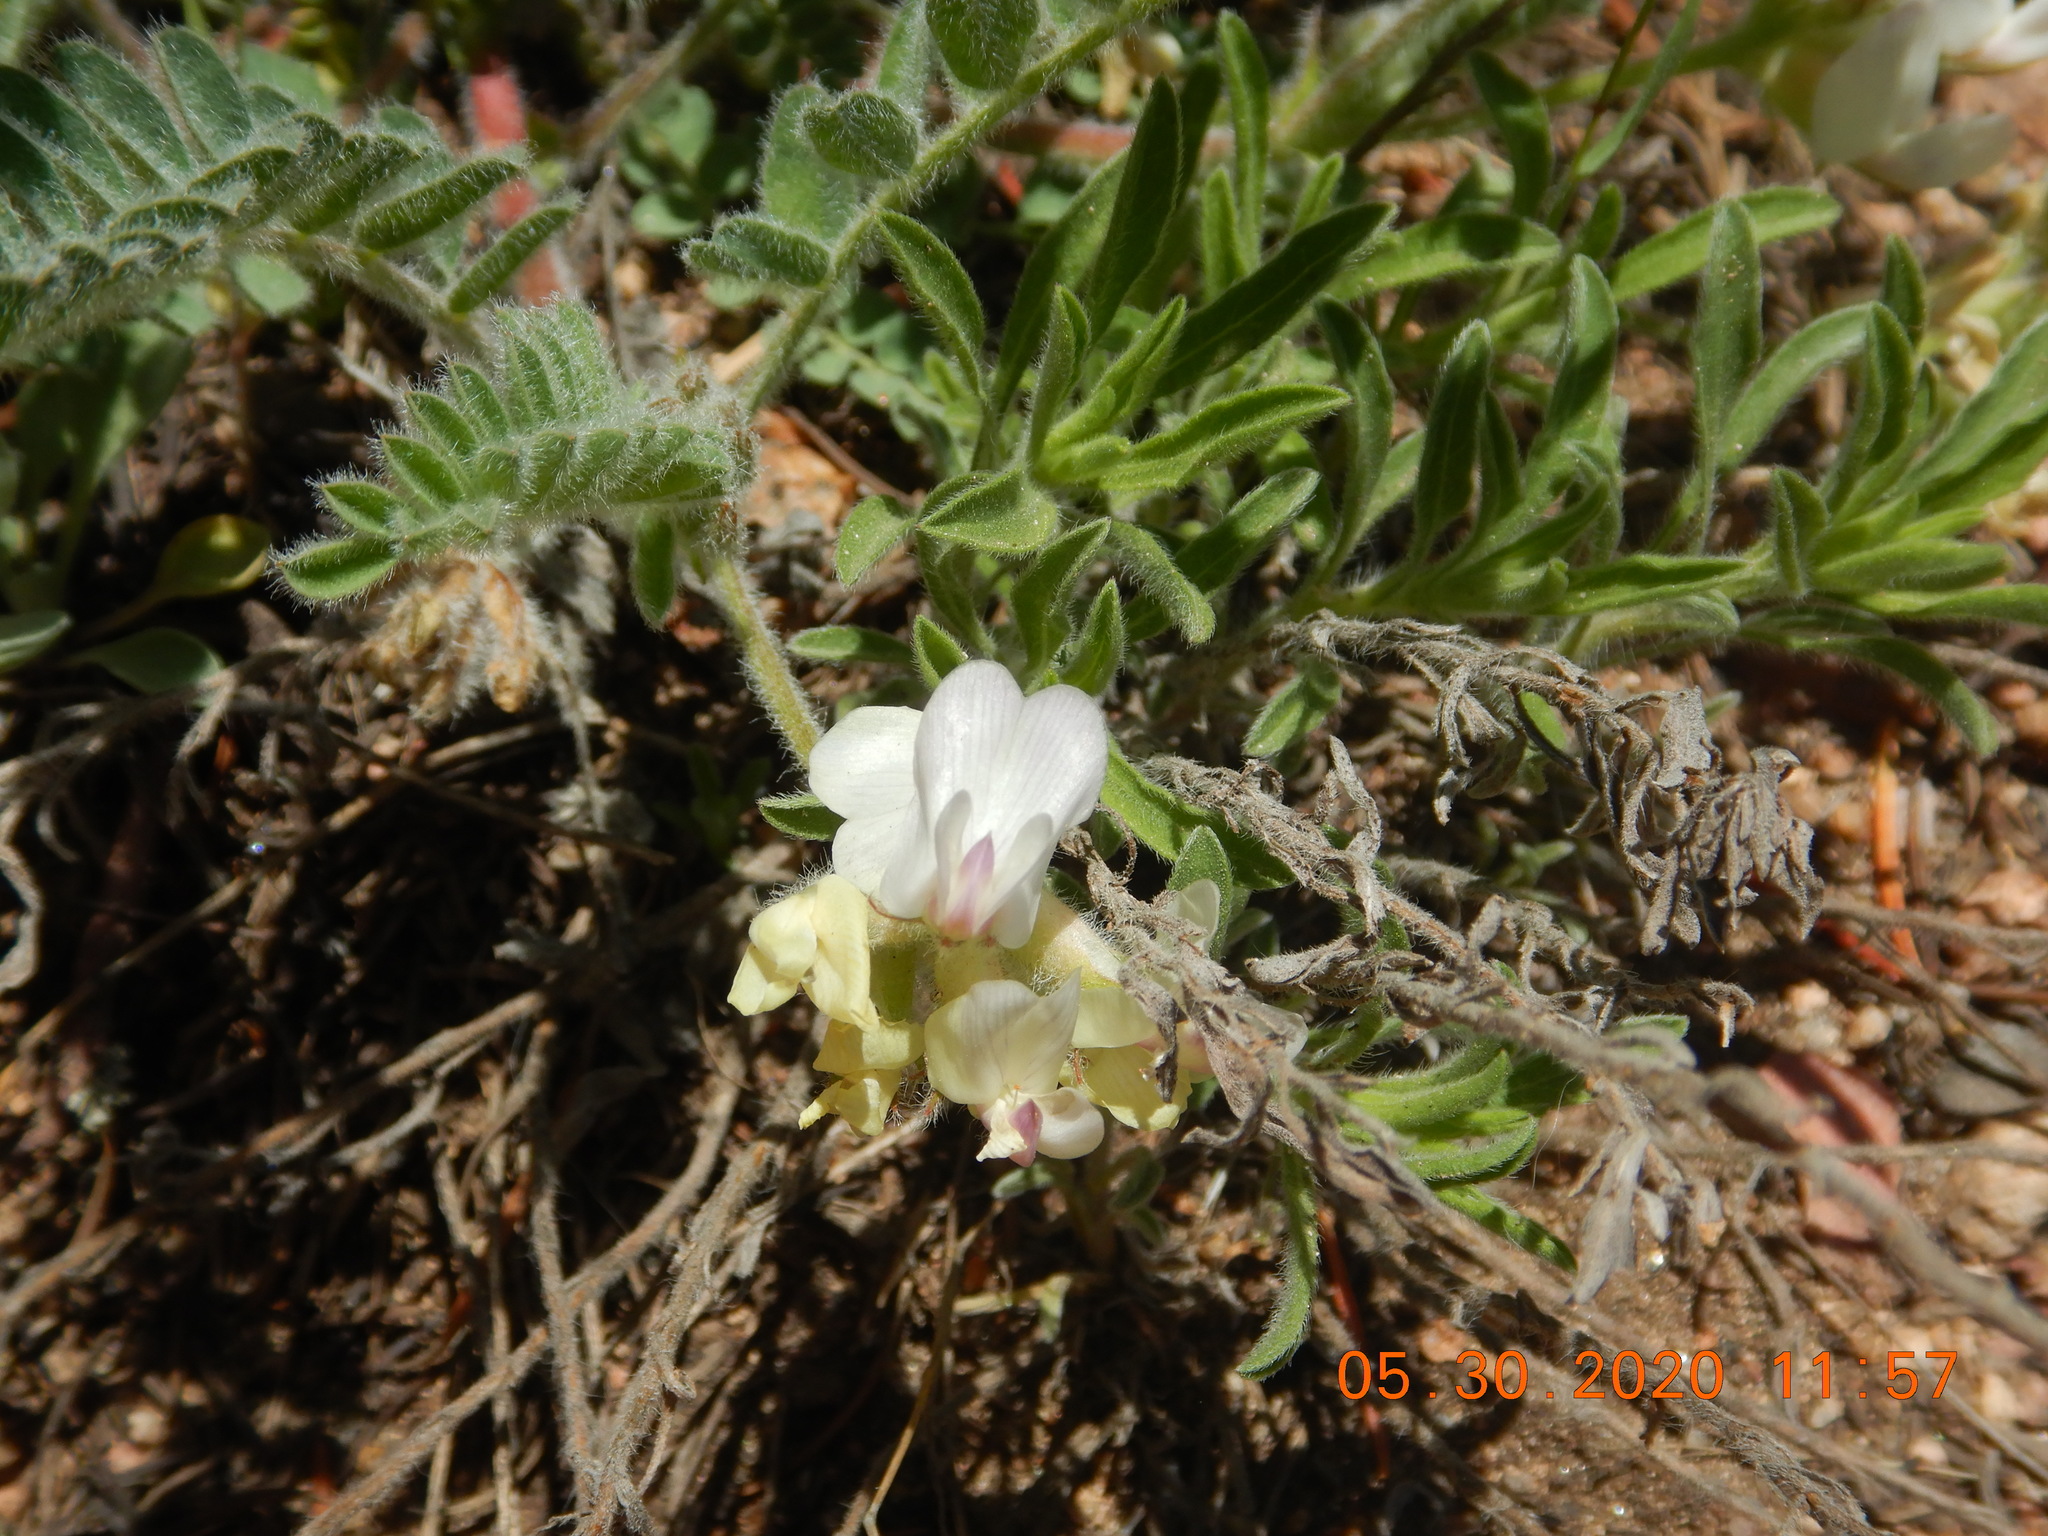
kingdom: Plantae
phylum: Tracheophyta
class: Magnoliopsida
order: Fabales
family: Fabaceae
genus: Astragalus
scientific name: Astragalus parryi
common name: Parry milk-vetch
